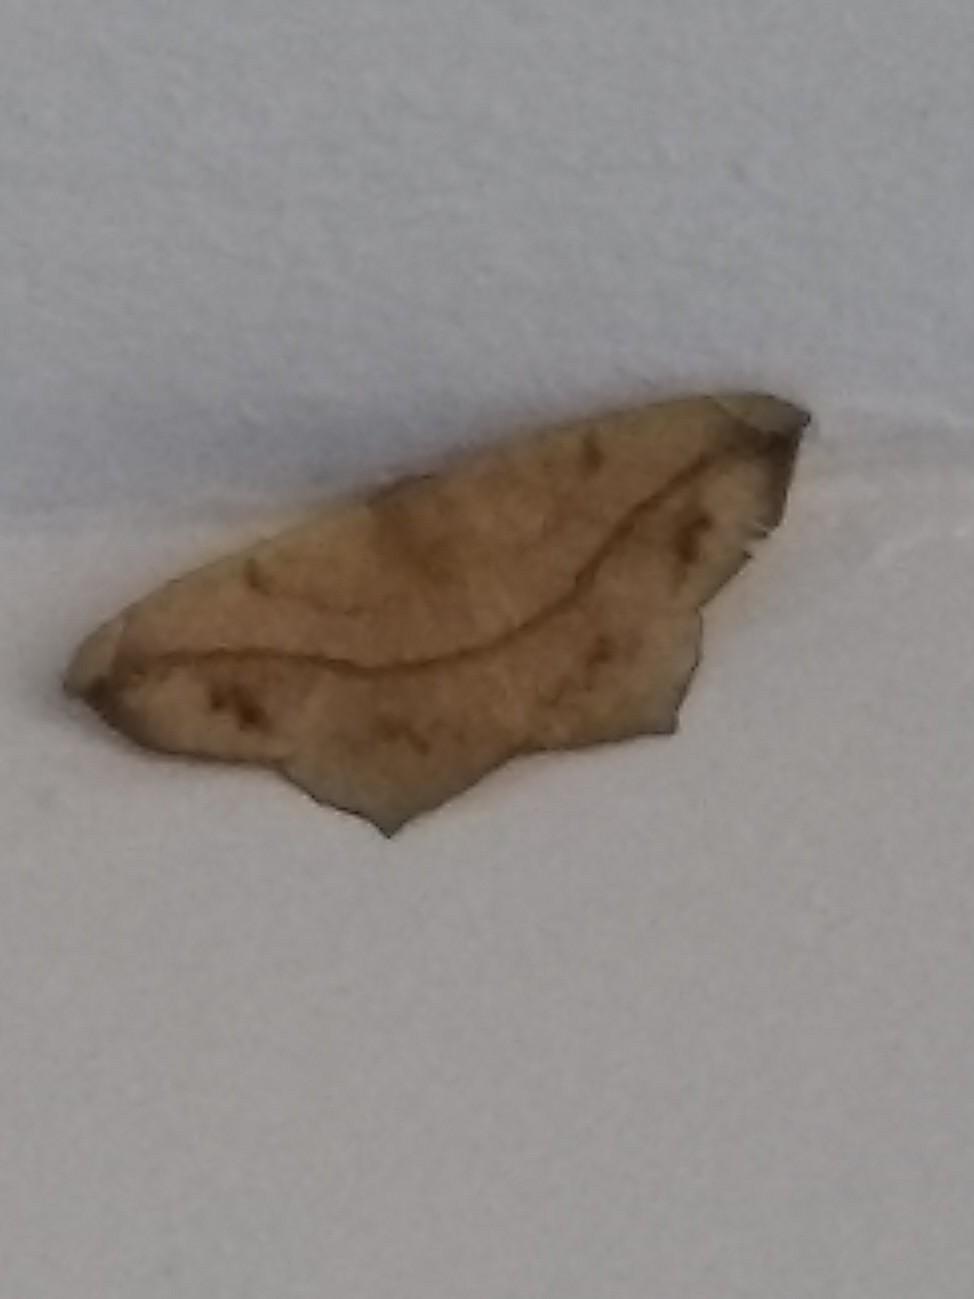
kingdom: Animalia
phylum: Arthropoda
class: Insecta
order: Lepidoptera
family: Geometridae
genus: Prochoerodes
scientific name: Prochoerodes lineola
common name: Large maple spanworm
